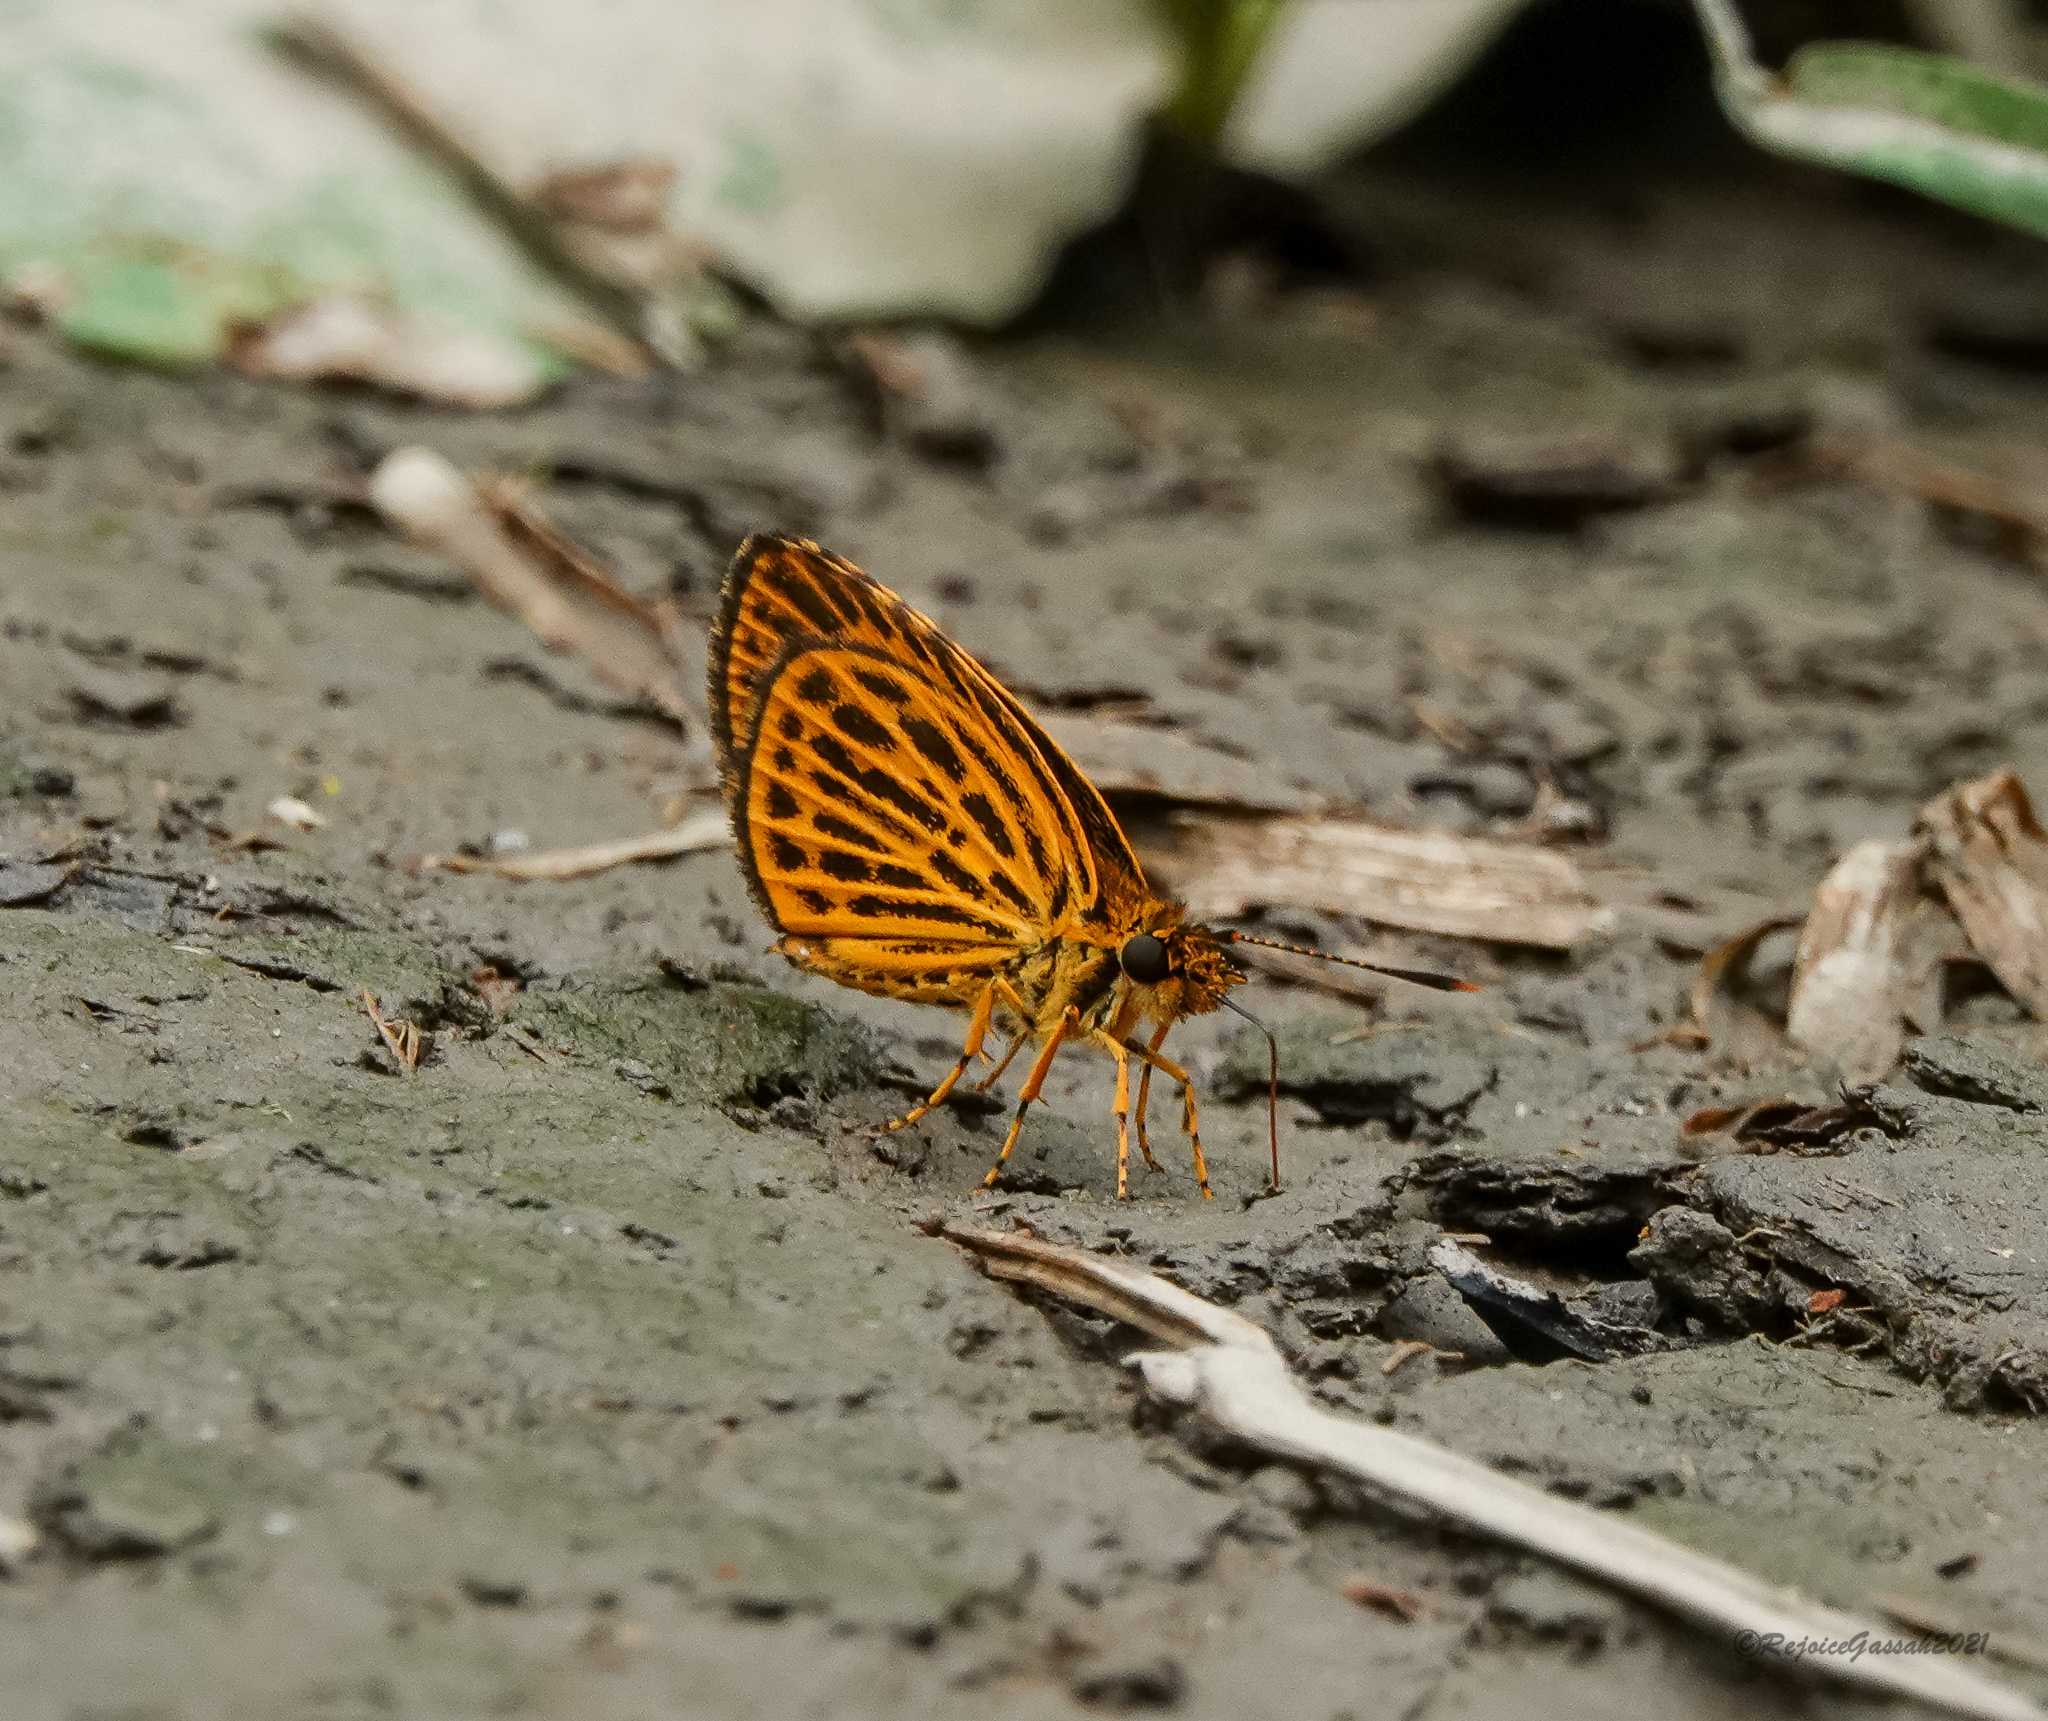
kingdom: Animalia
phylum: Arthropoda
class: Insecta
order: Lepidoptera
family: Hesperiidae
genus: Ampittia
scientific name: Ampittia subvittatus
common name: Tiger hopper
